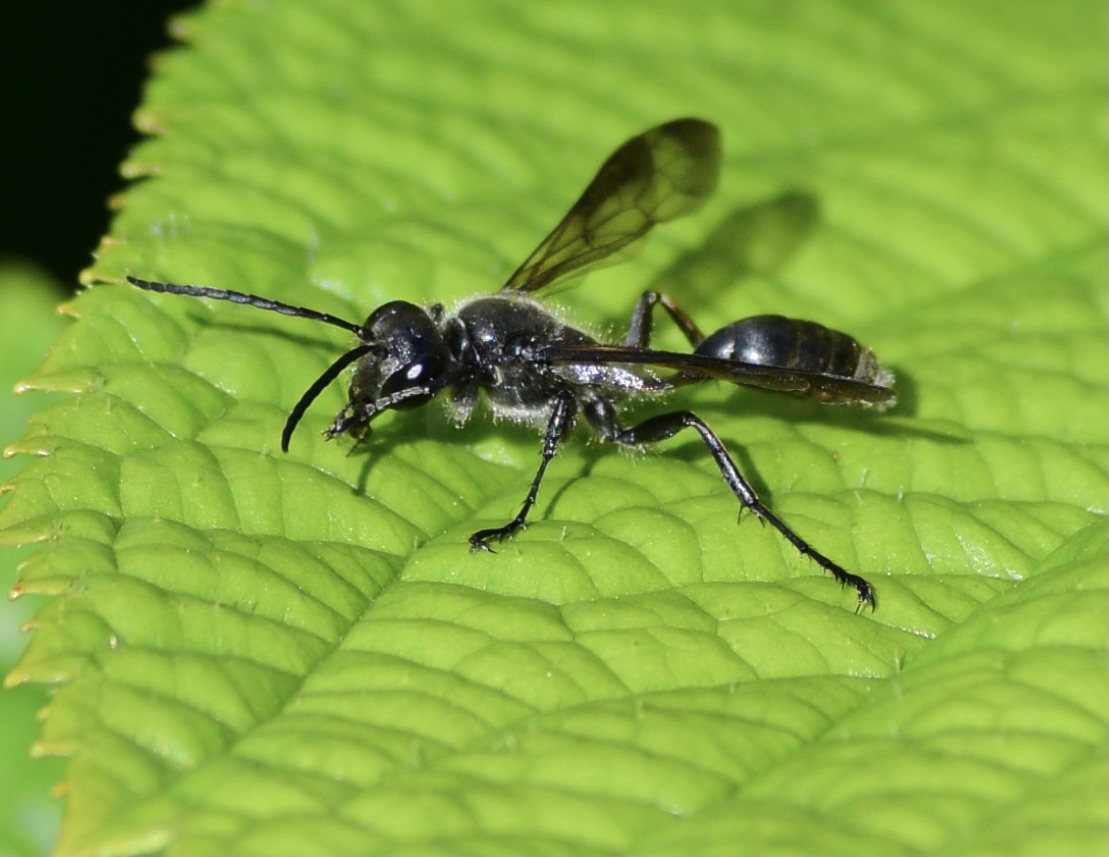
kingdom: Animalia
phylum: Arthropoda
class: Insecta
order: Hymenoptera
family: Sphecidae
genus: Isodontia
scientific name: Isodontia mexicana
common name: Mud dauber
